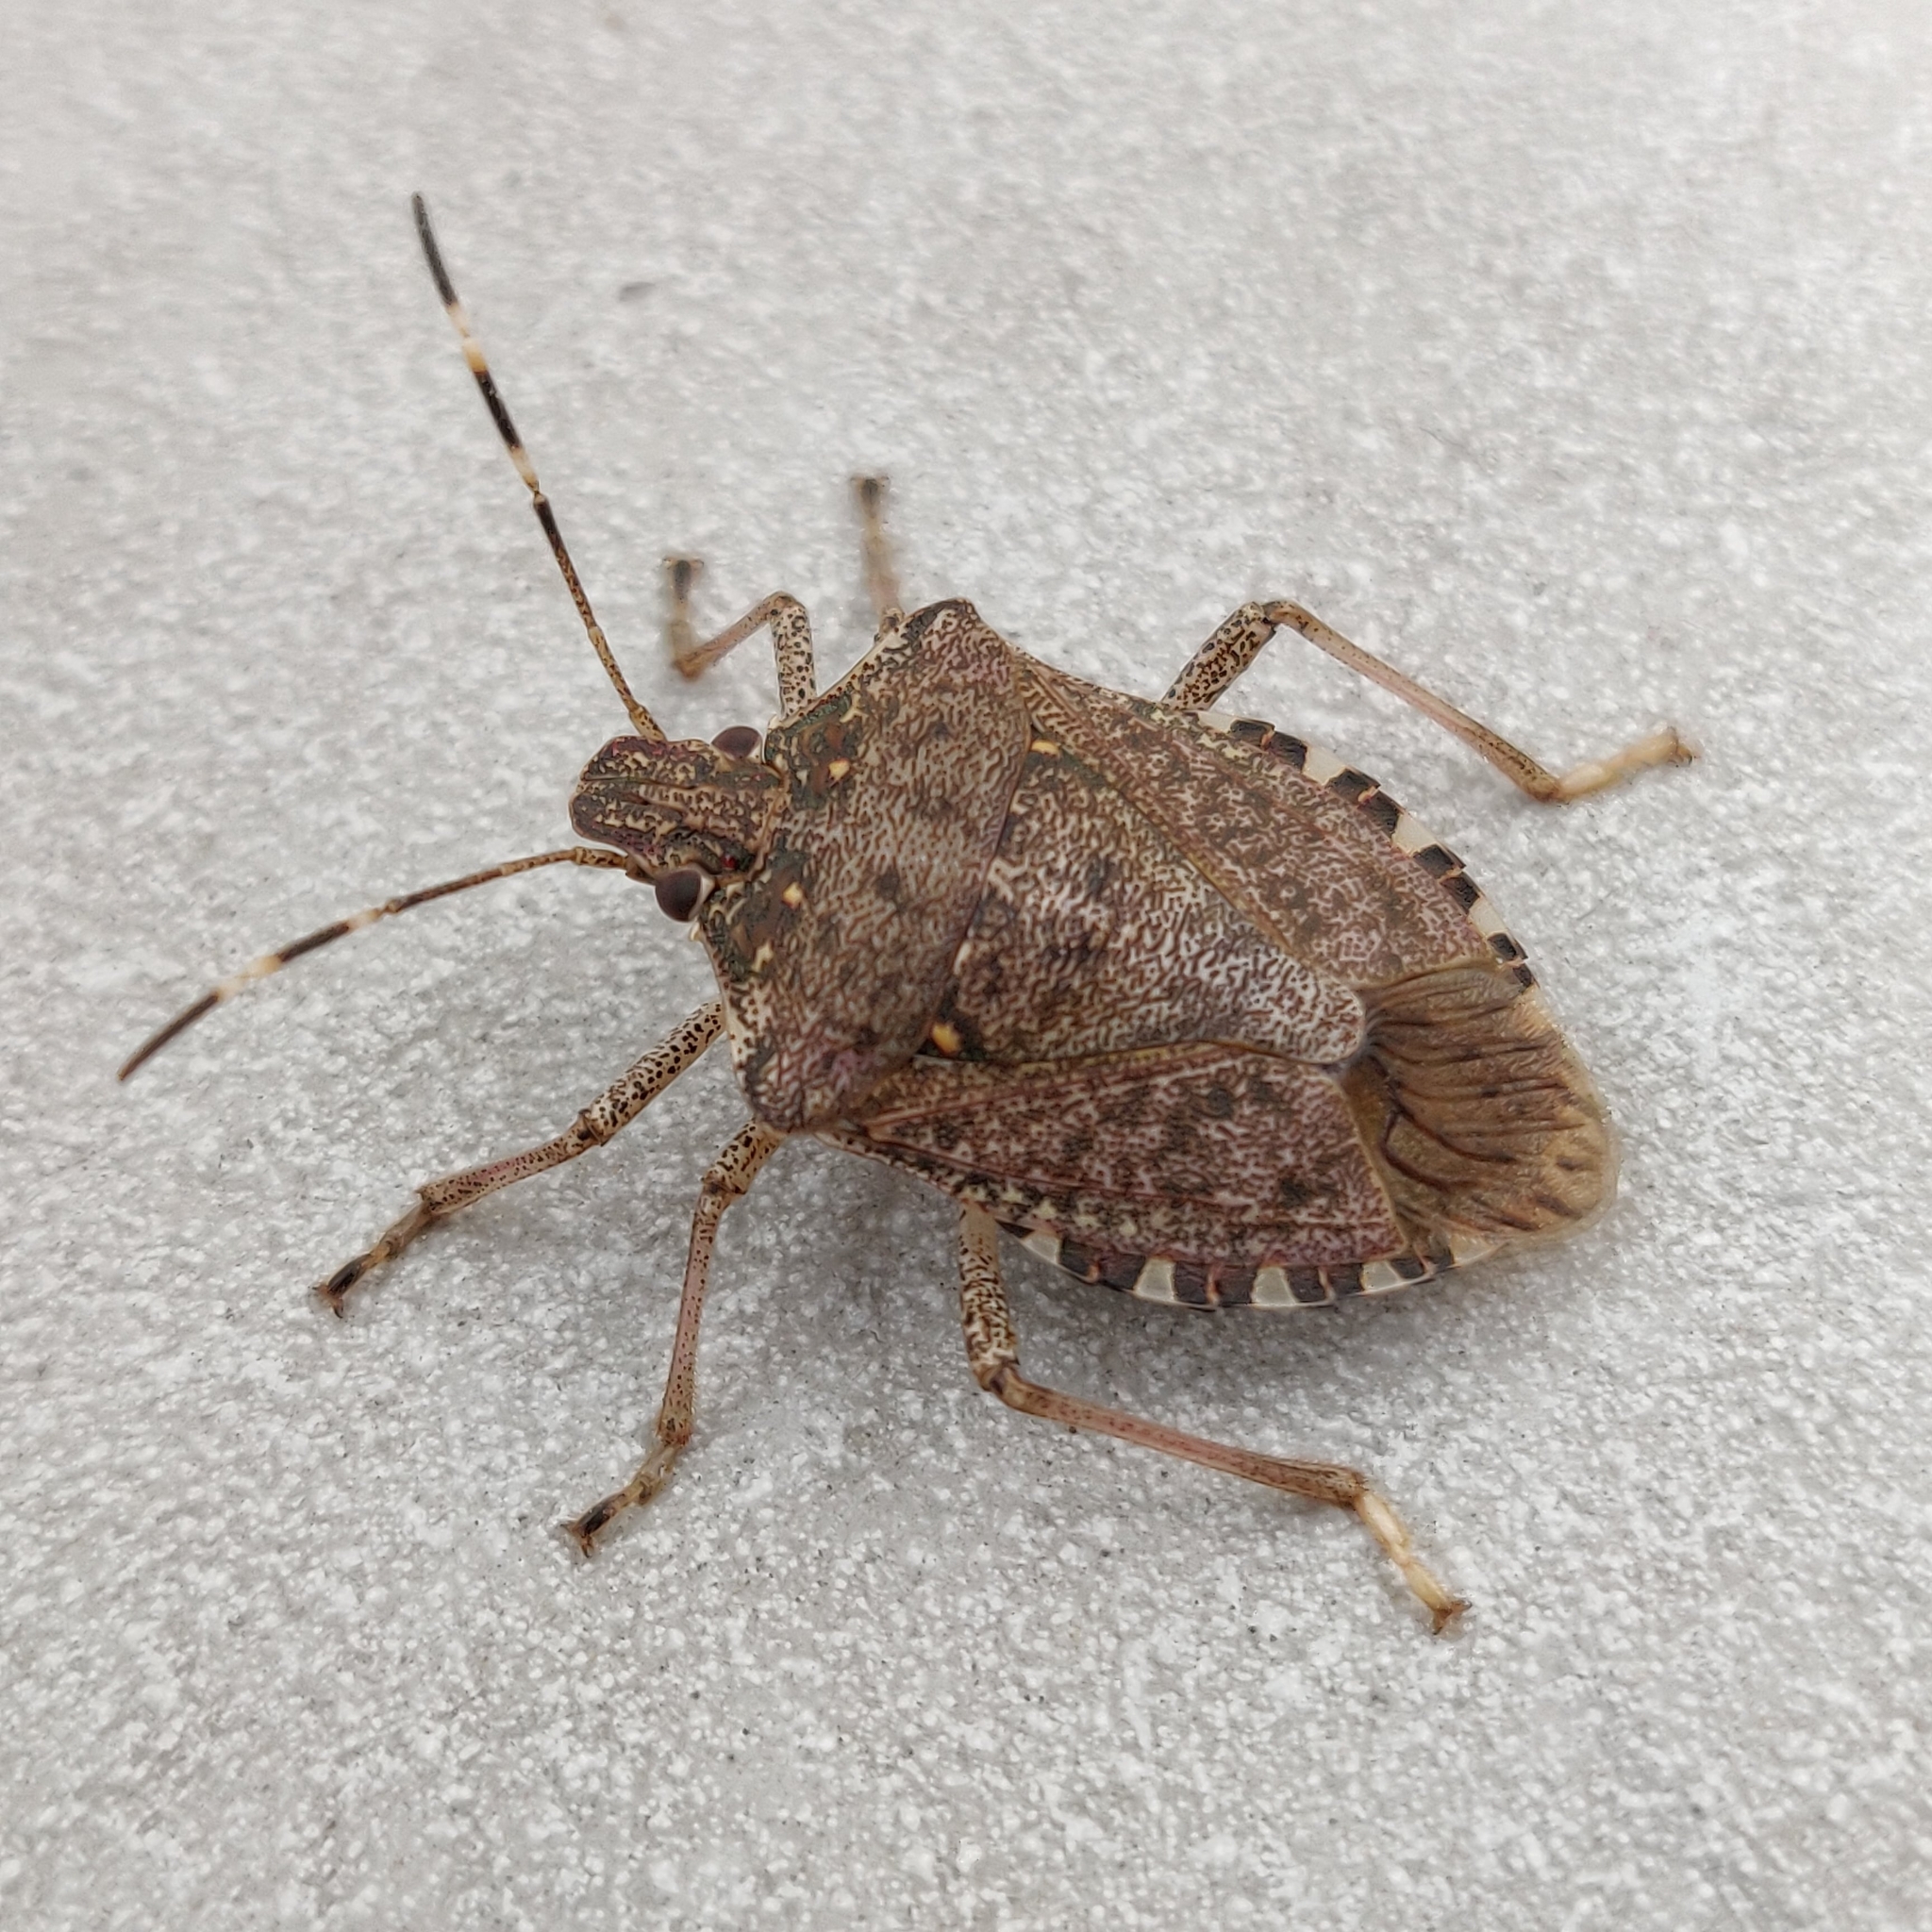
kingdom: Animalia
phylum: Arthropoda
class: Insecta
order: Hemiptera
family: Pentatomidae
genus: Halyomorpha
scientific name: Halyomorpha halys
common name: Brown marmorated stink bug
